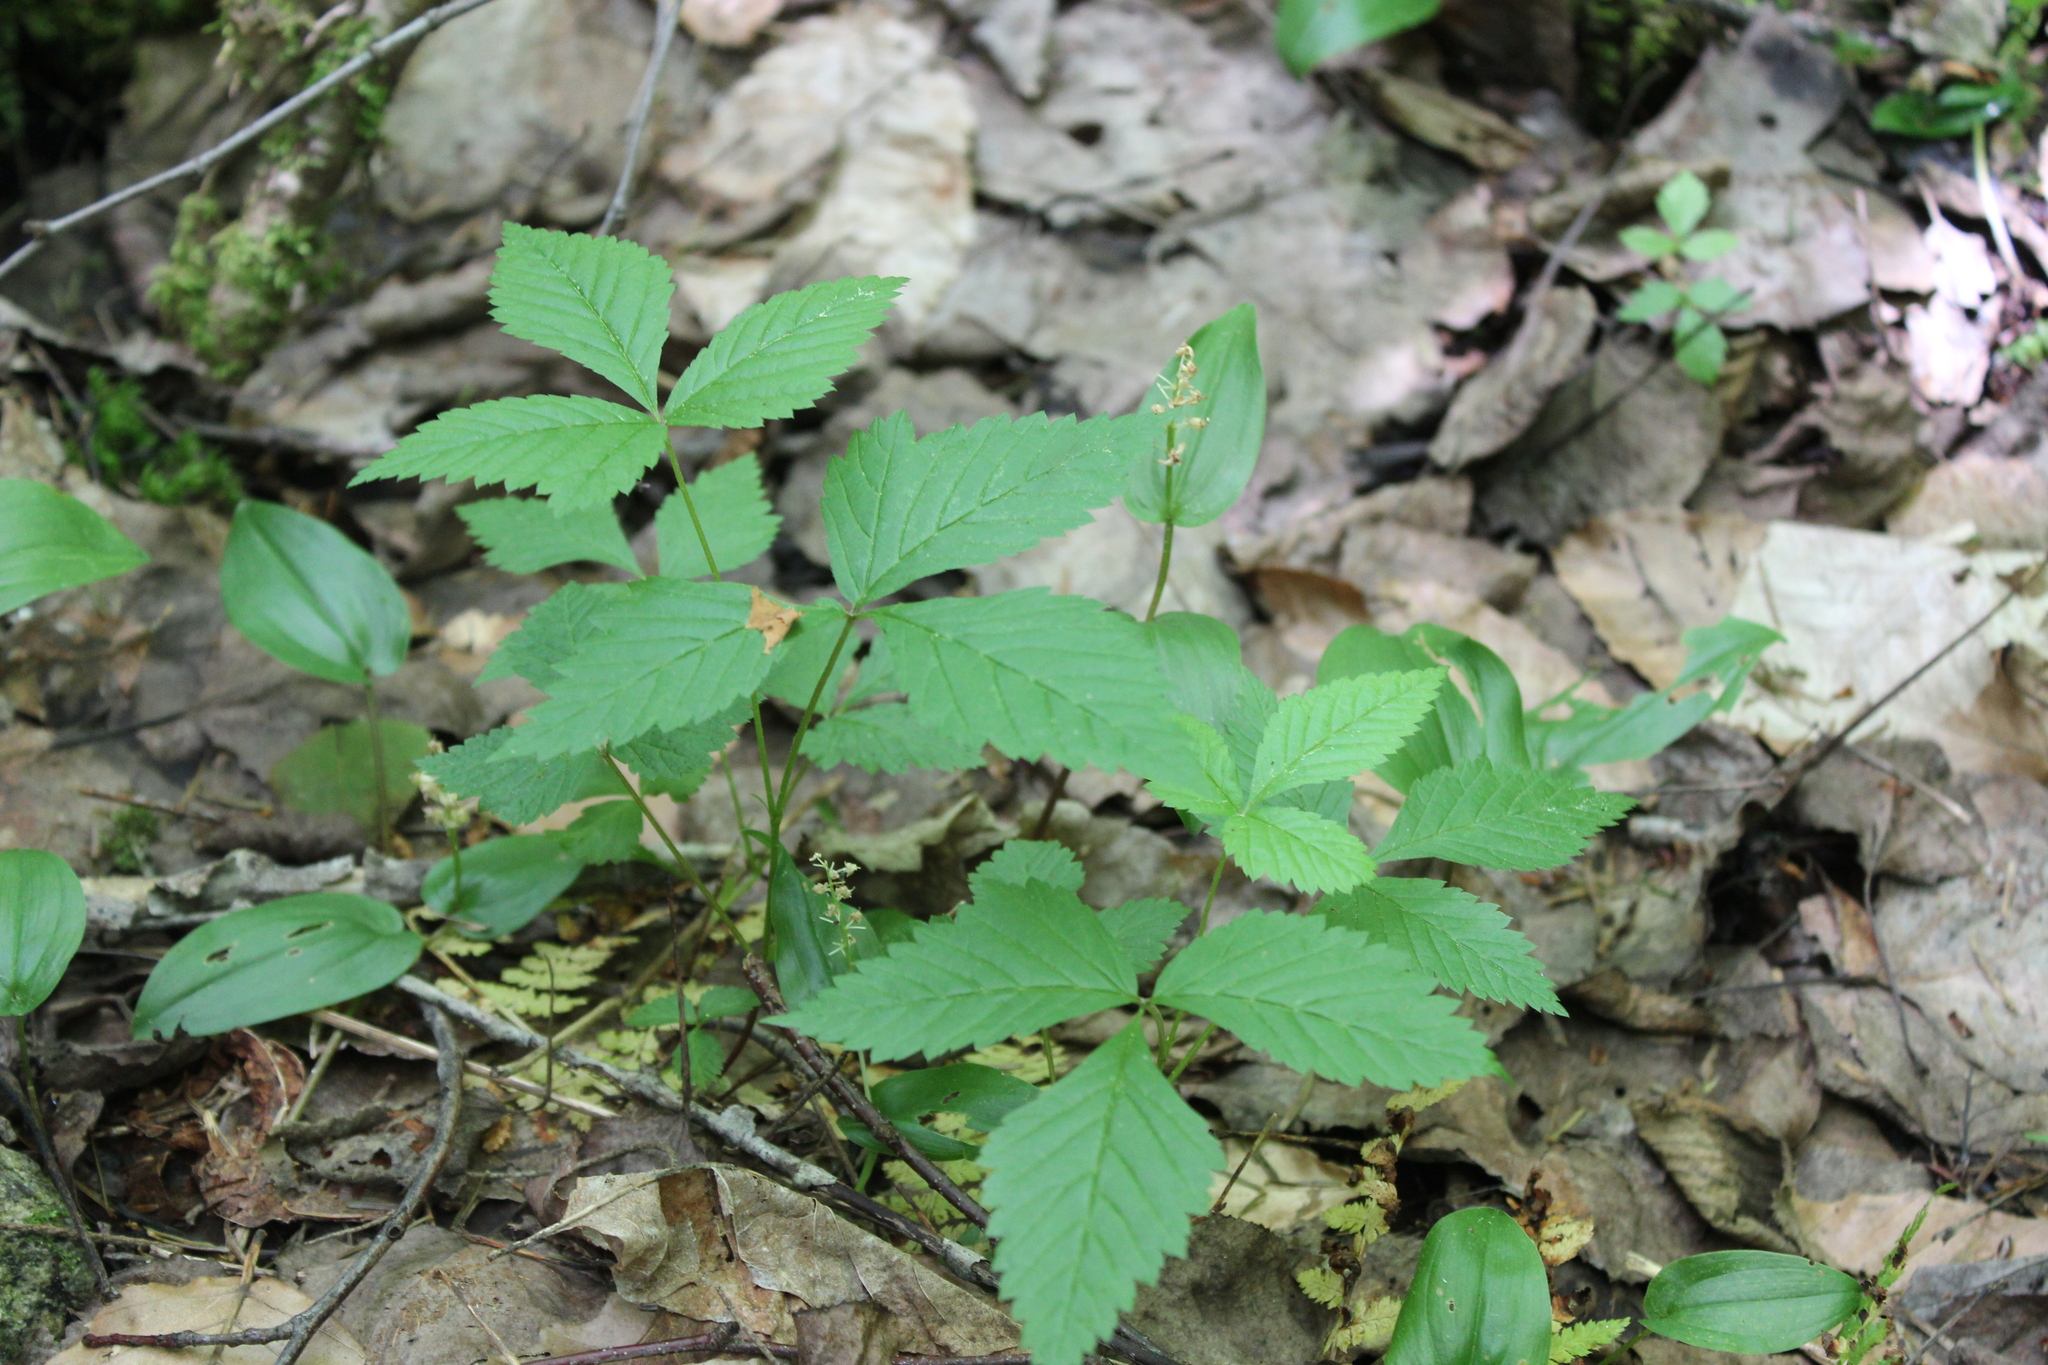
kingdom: Plantae
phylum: Tracheophyta
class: Magnoliopsida
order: Rosales
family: Rosaceae
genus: Rubus
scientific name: Rubus pubescens
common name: Dwarf raspberry
